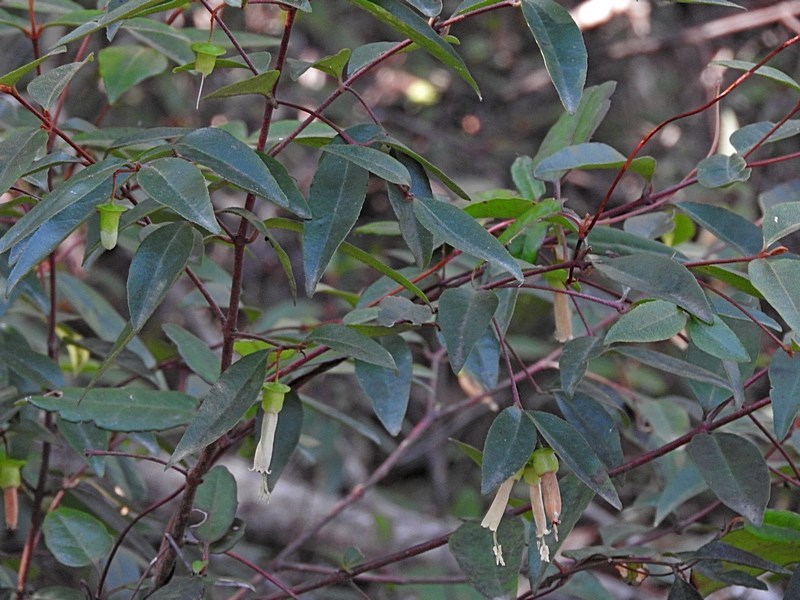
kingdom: Plantae
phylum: Tracheophyta
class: Magnoliopsida
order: Sapindales
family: Rutaceae
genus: Correa
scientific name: Correa baeuerlenii
